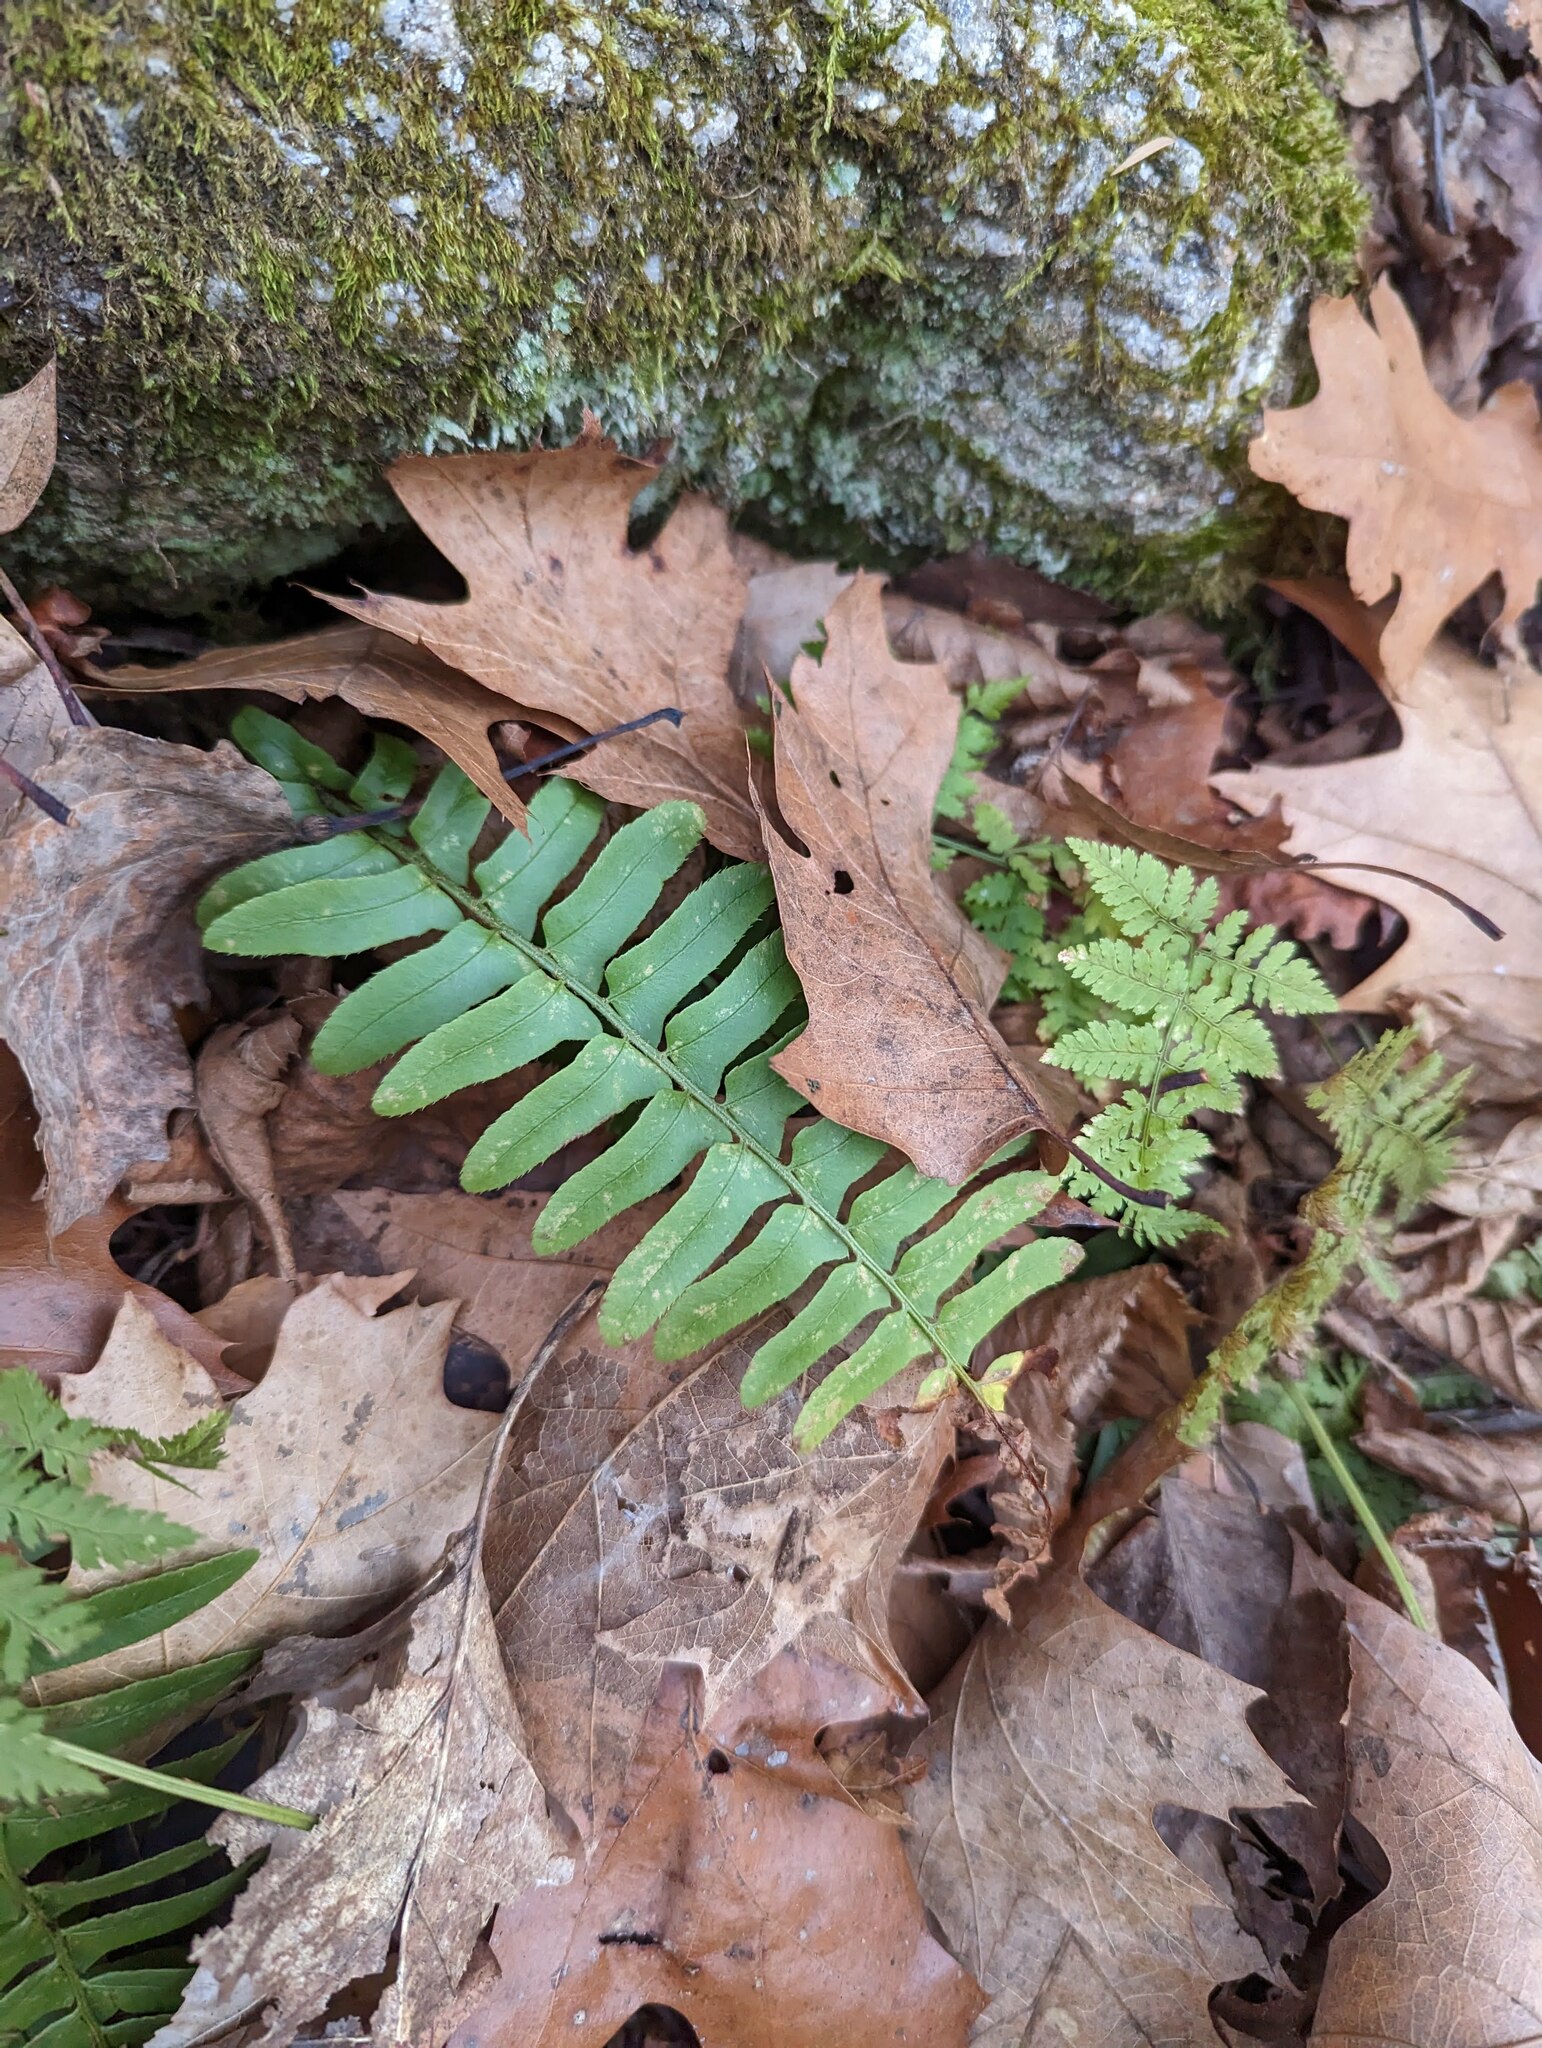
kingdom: Plantae
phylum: Tracheophyta
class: Polypodiopsida
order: Polypodiales
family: Dryopteridaceae
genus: Polystichum
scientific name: Polystichum acrostichoides
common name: Christmas fern
